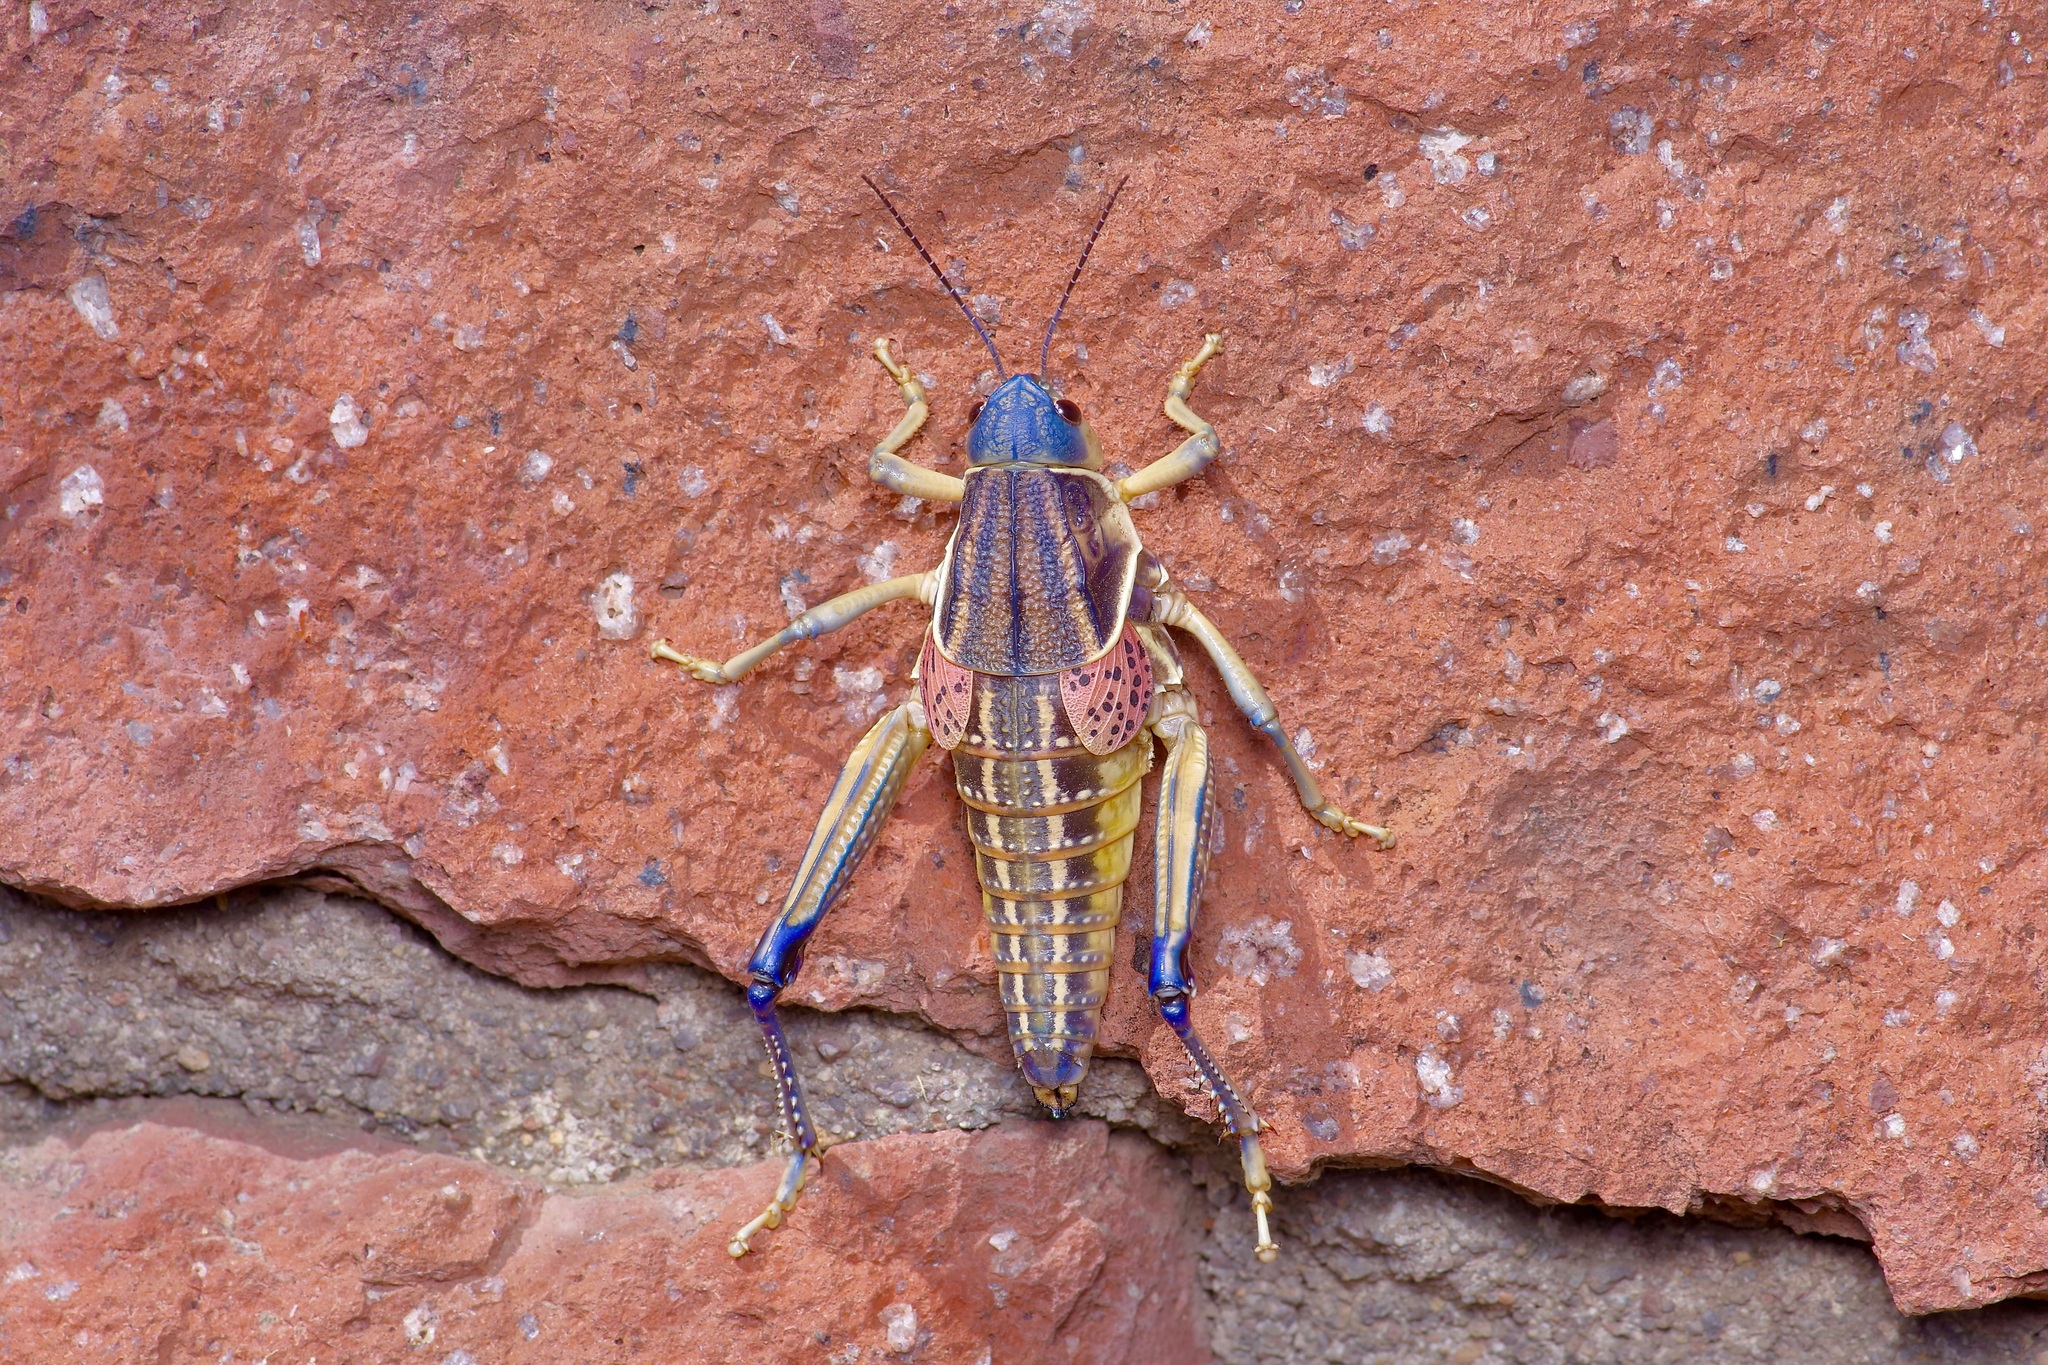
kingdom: Animalia
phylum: Arthropoda
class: Insecta
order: Orthoptera
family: Romaleidae
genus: Brachystola
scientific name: Brachystola magna
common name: Plains lubber grasshopper
